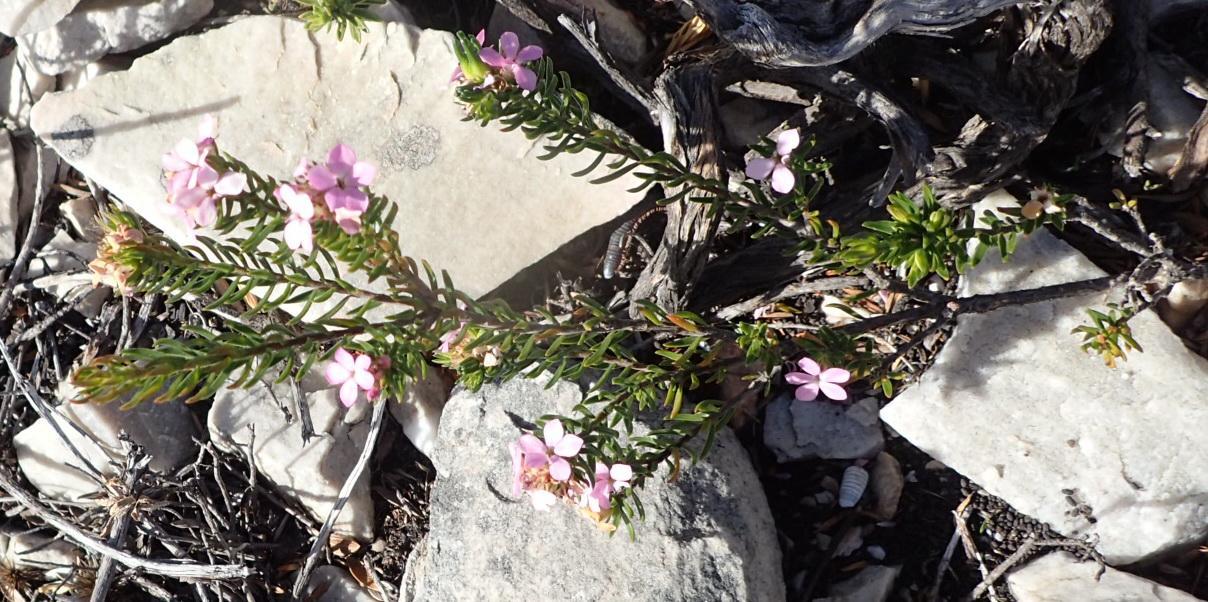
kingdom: Plantae
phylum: Tracheophyta
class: Magnoliopsida
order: Sapindales
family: Rutaceae
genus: Acmadenia
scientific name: Acmadenia alternifolia
